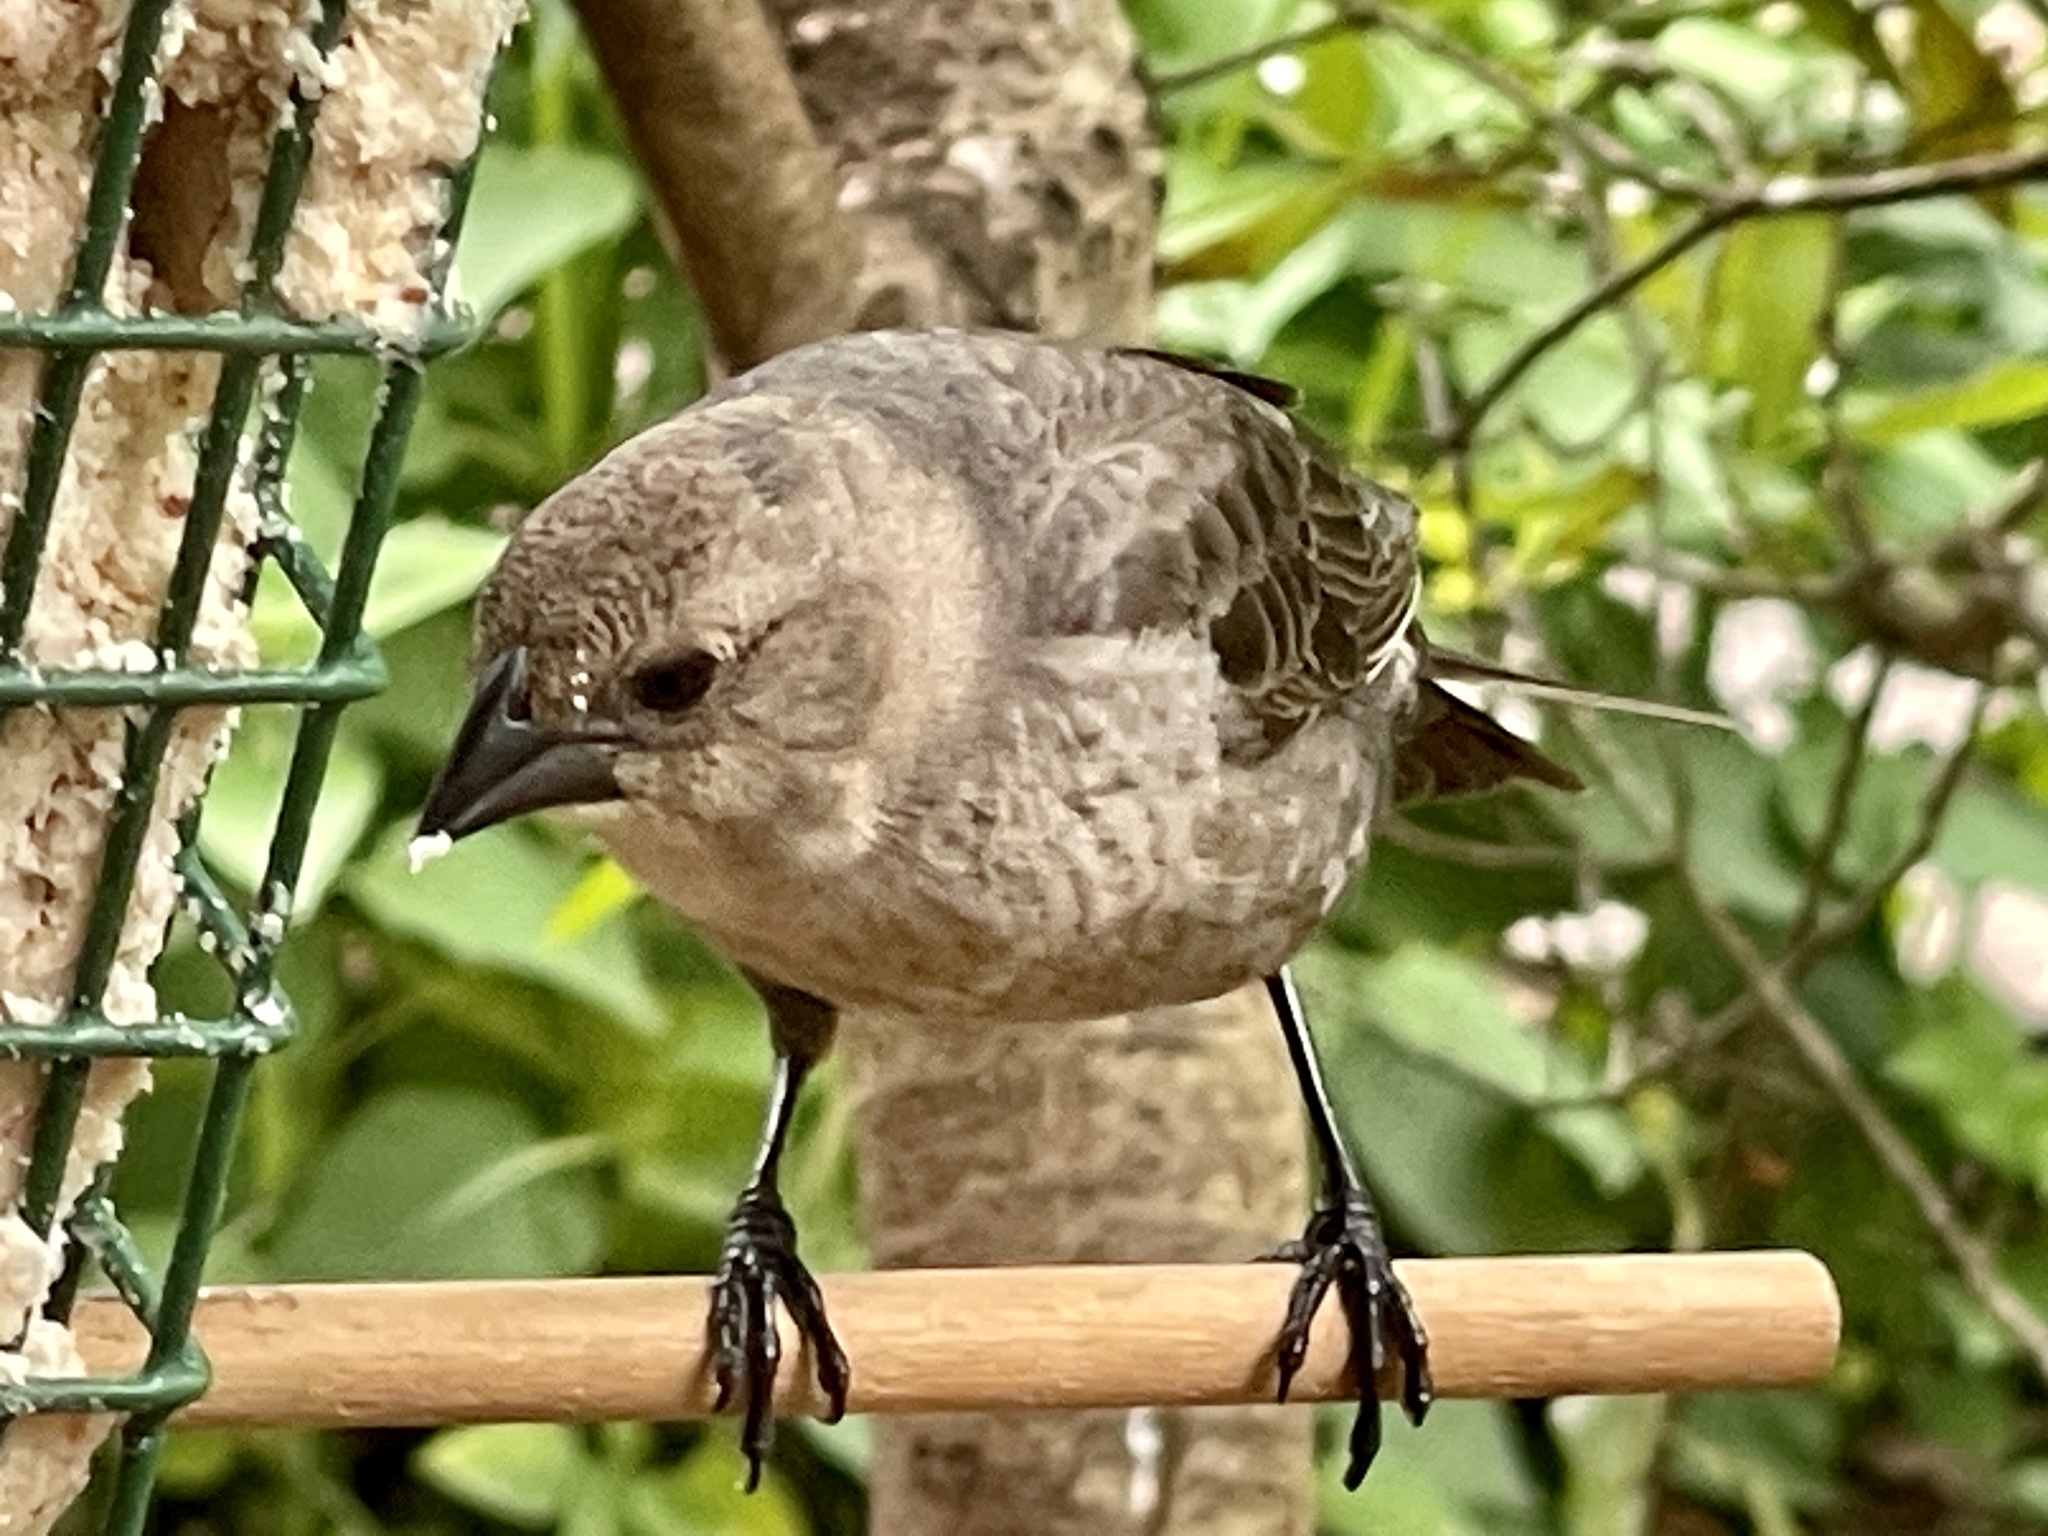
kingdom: Animalia
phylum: Chordata
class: Aves
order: Passeriformes
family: Icteridae
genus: Molothrus
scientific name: Molothrus ater
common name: Brown-headed cowbird
